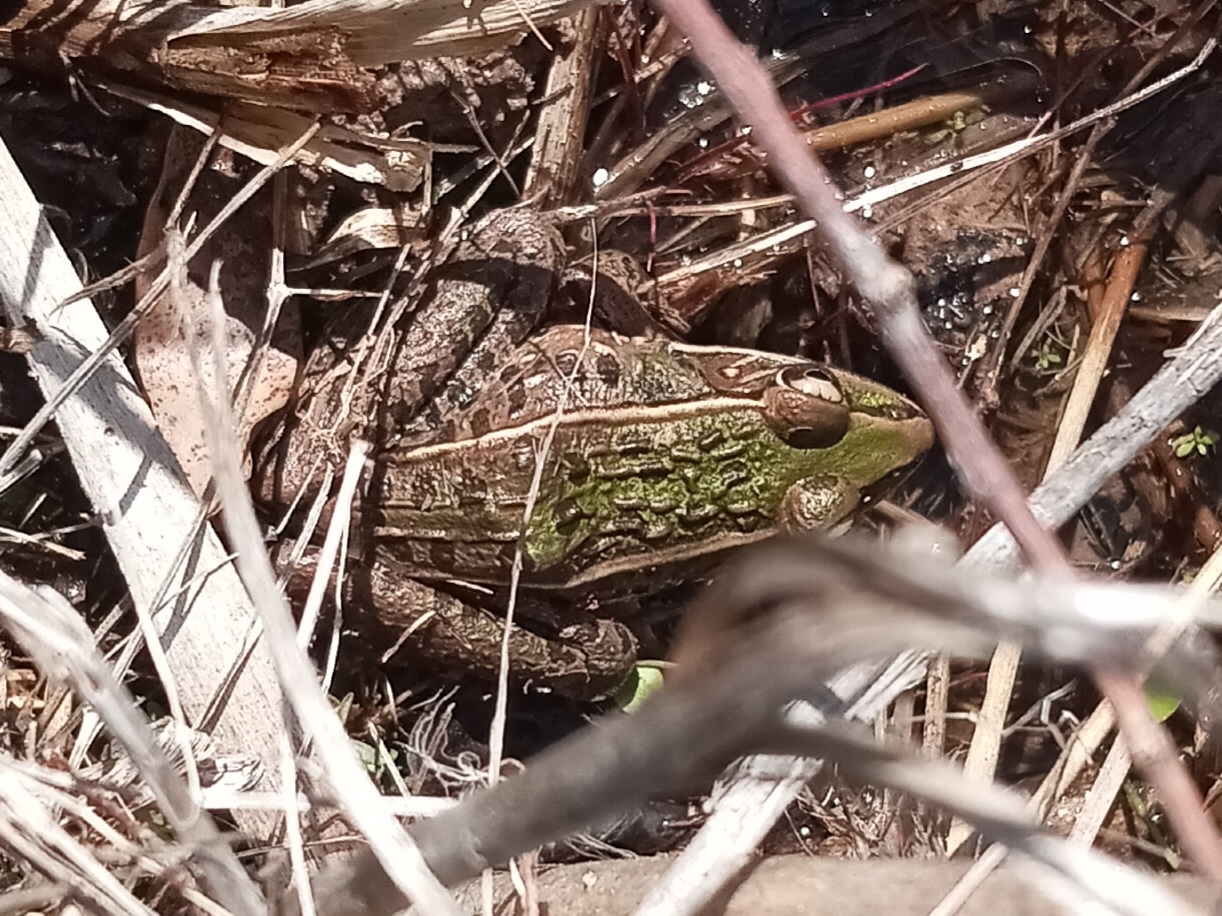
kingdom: Animalia
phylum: Chordata
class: Amphibia
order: Anura
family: Ranidae
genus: Lithobates
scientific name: Lithobates sphenocephalus
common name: Southern leopard frog
